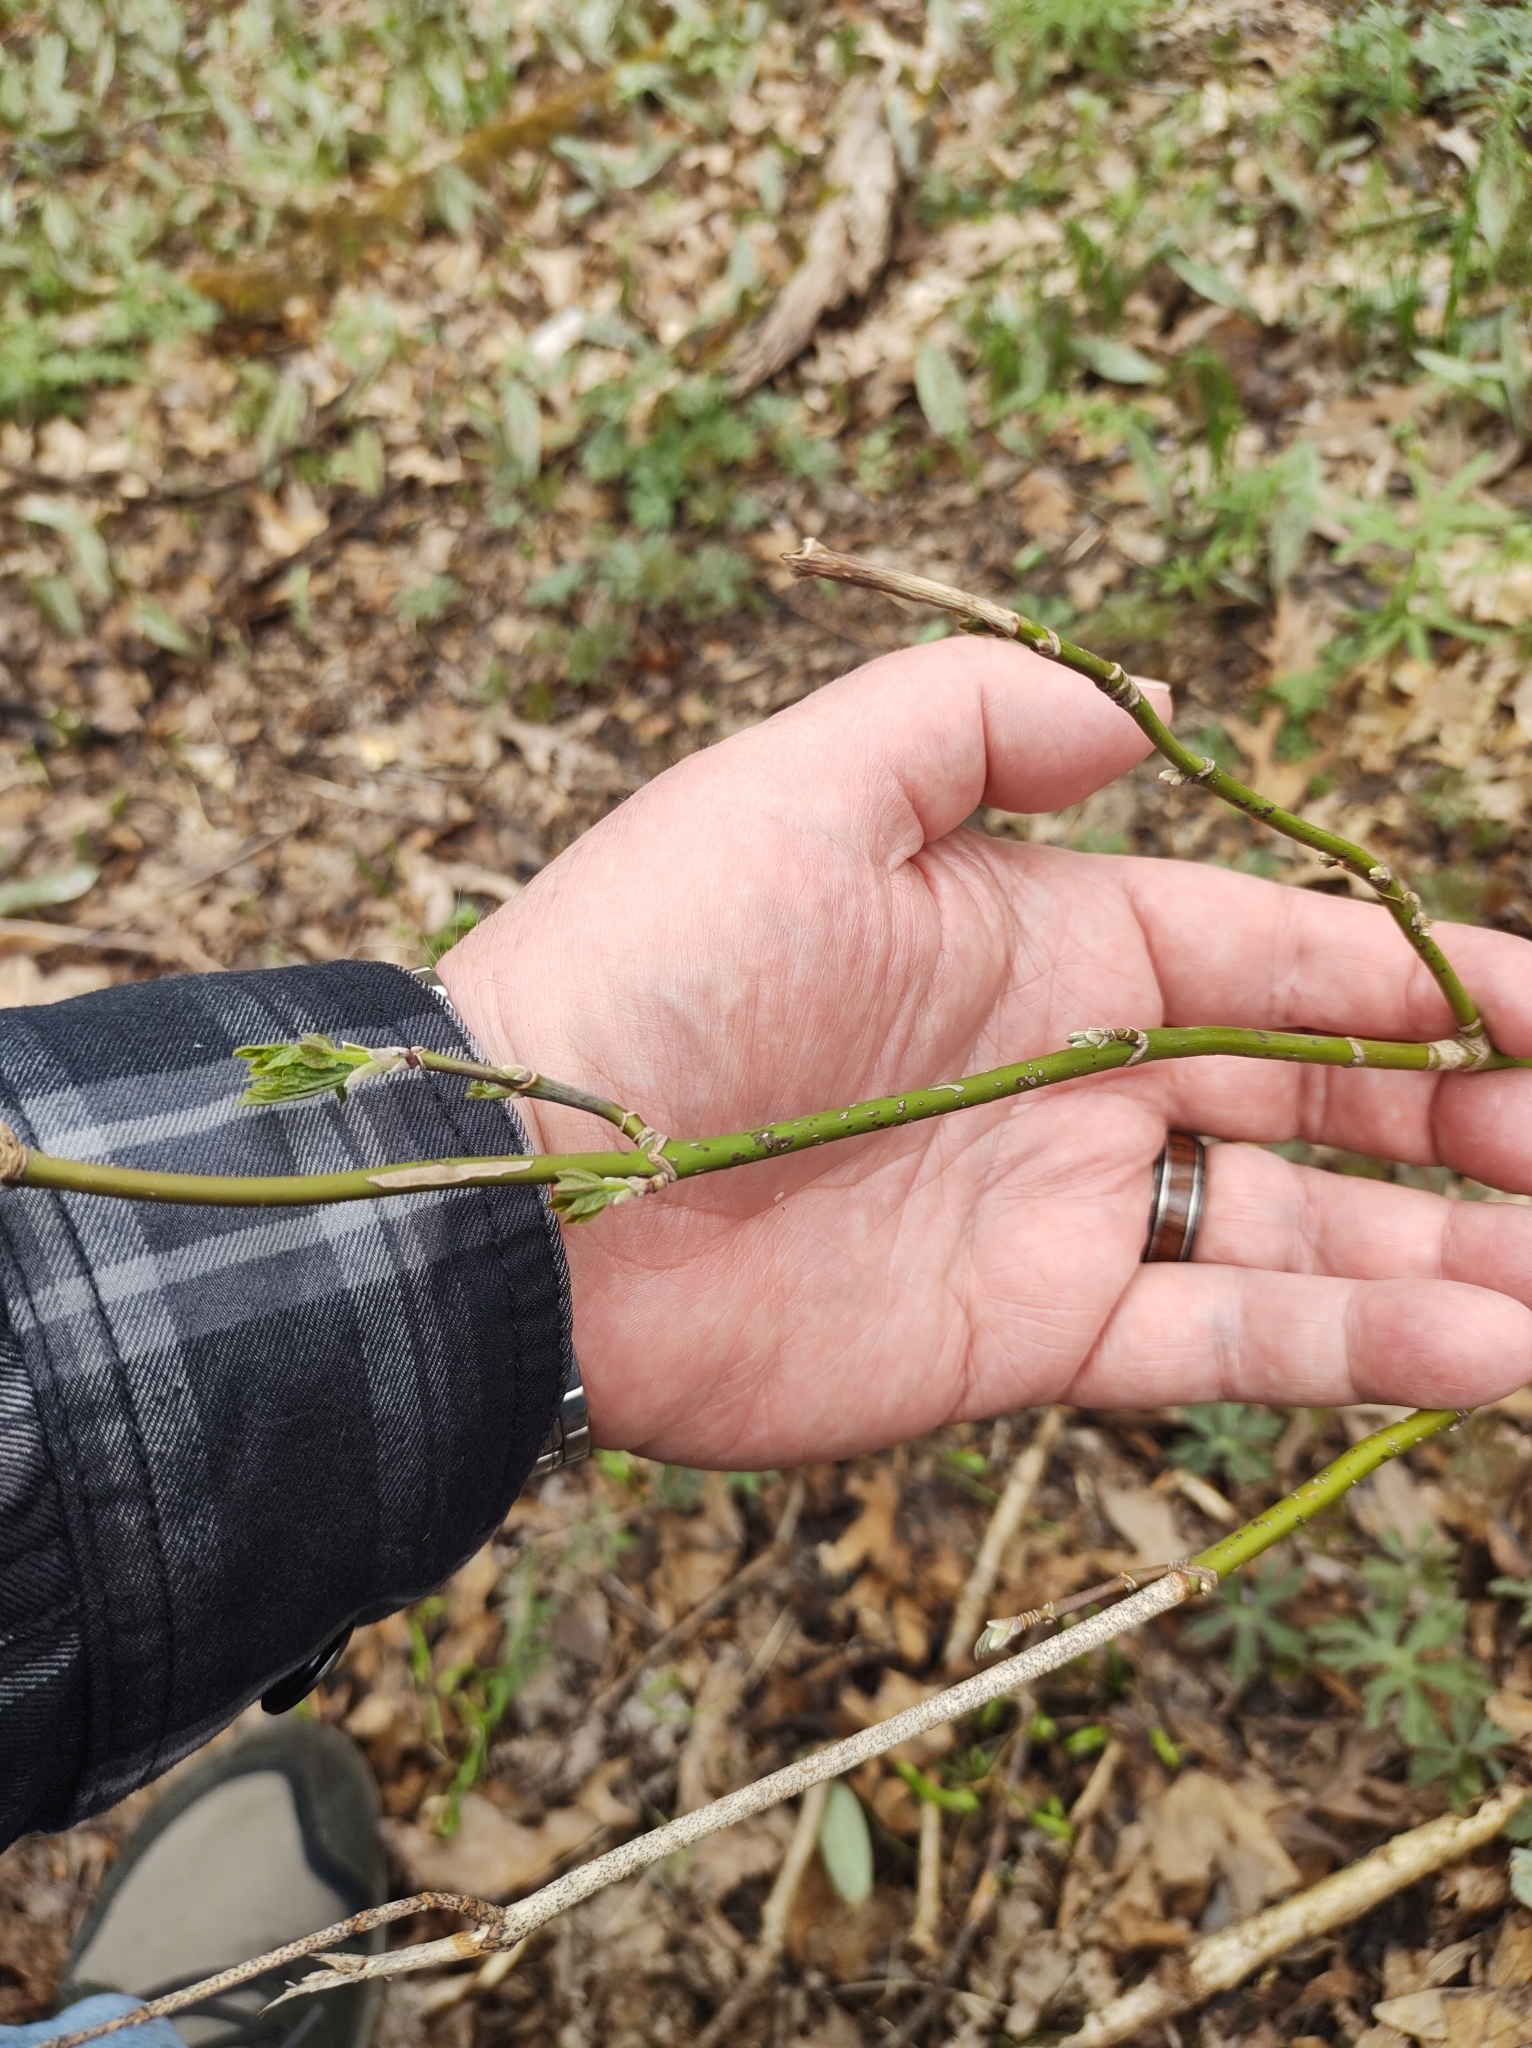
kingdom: Plantae
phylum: Tracheophyta
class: Magnoliopsida
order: Sapindales
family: Sapindaceae
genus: Acer
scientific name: Acer negundo
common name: Ashleaf maple
